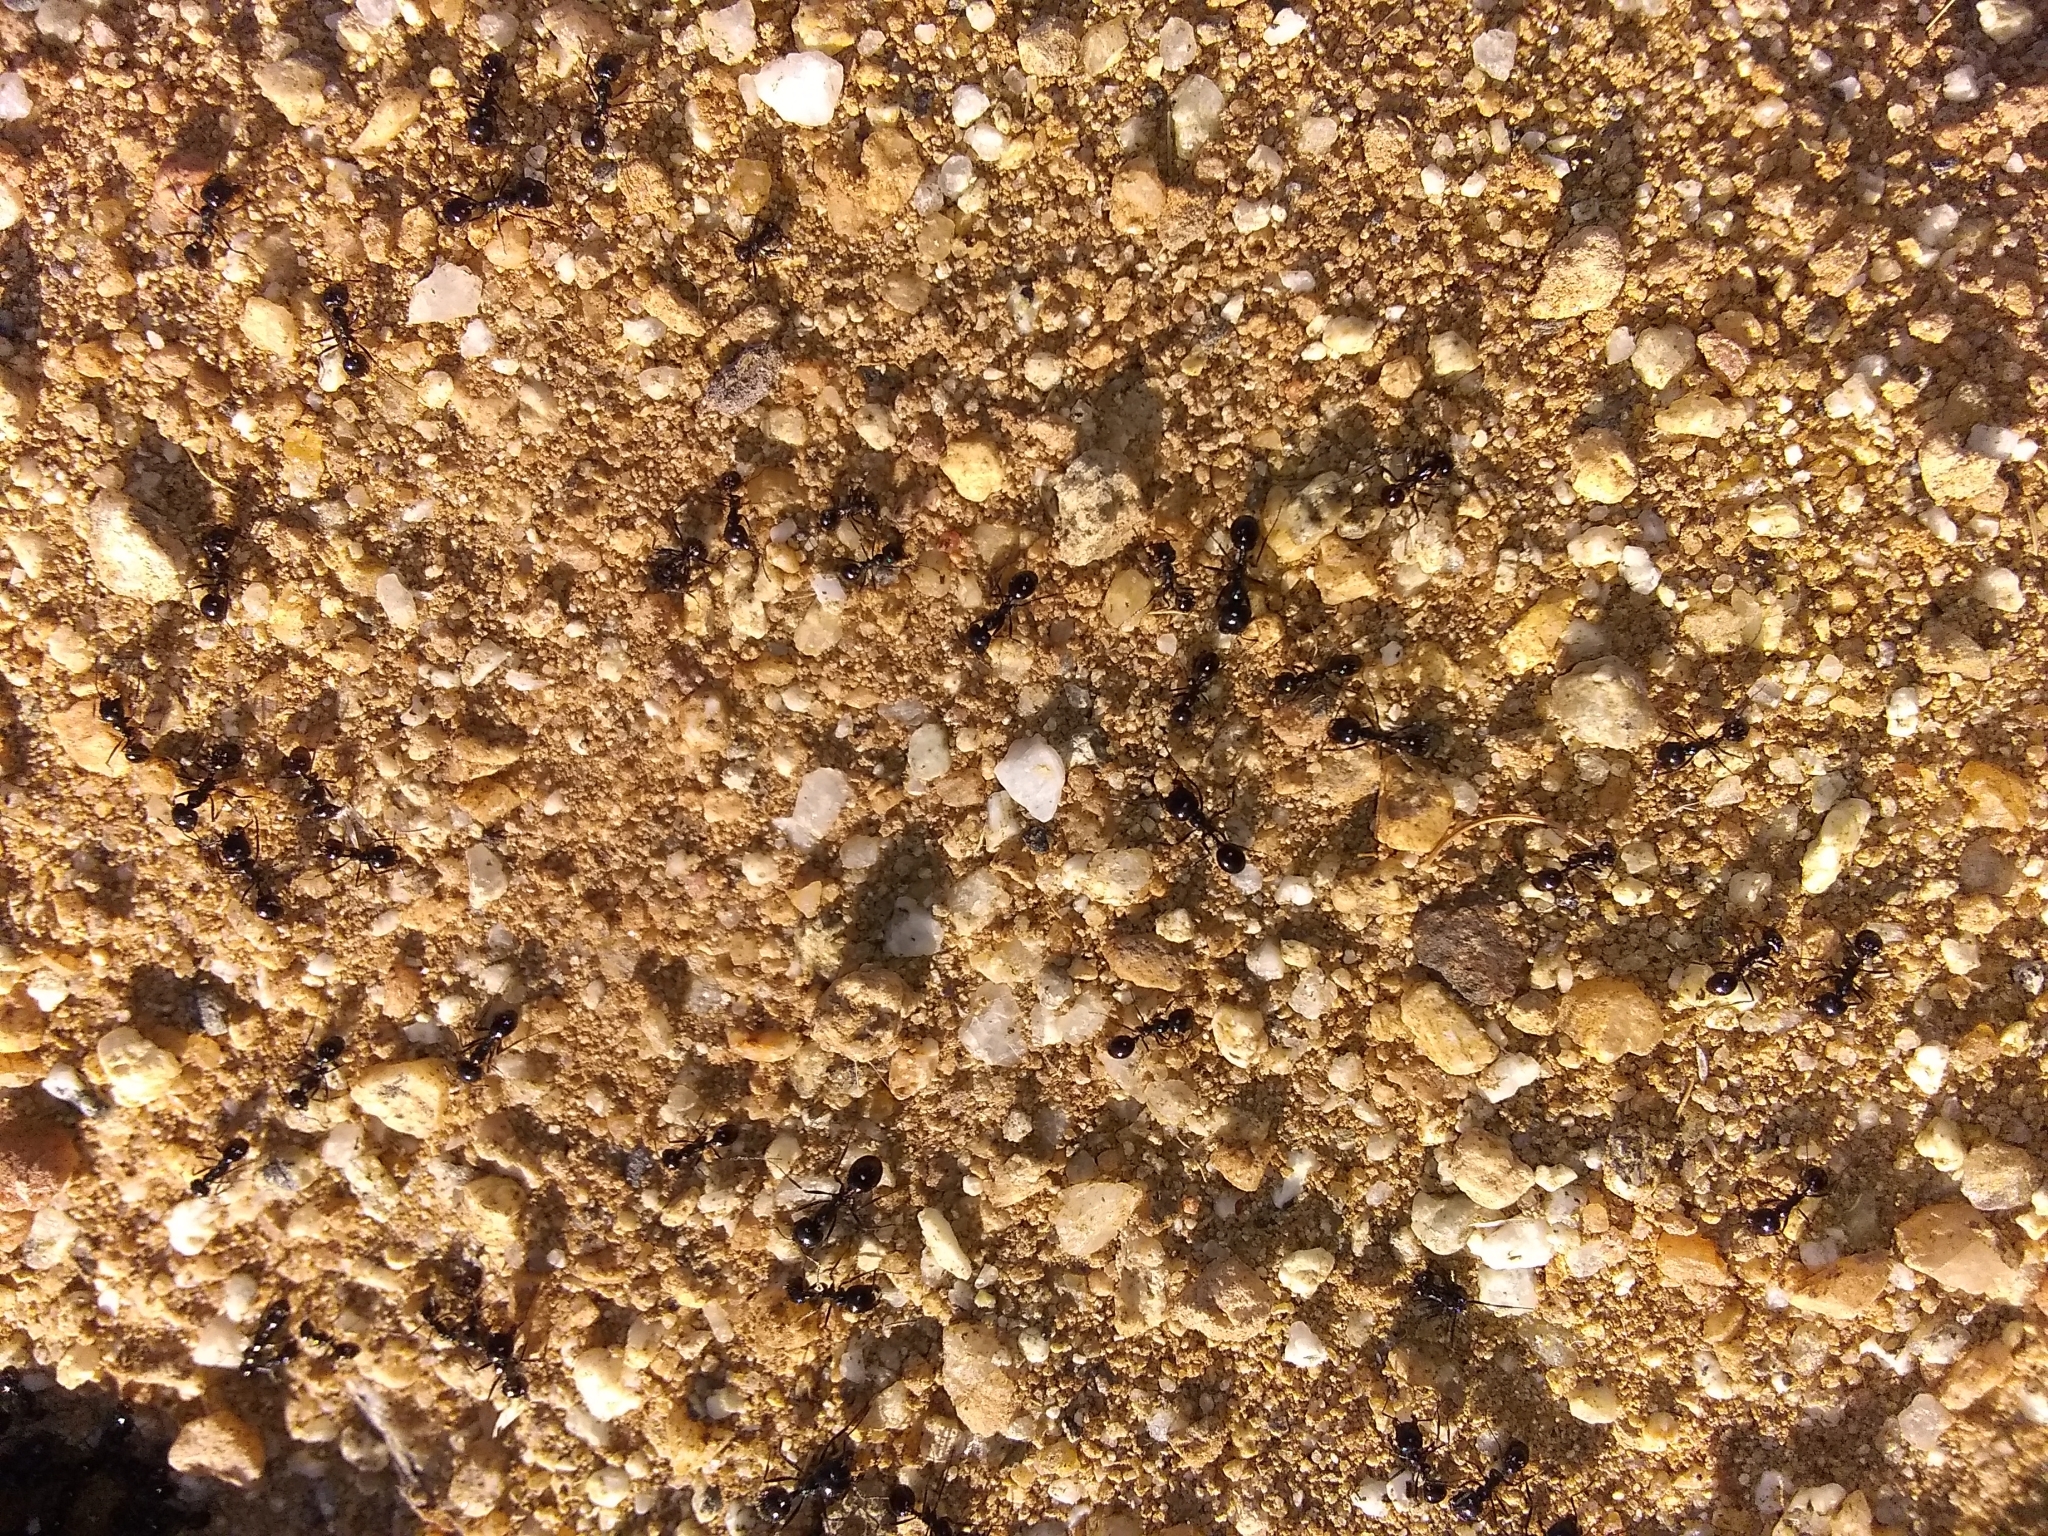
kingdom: Animalia
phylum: Arthropoda
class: Insecta
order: Hymenoptera
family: Formicidae
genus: Messor
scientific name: Messor pergandei
